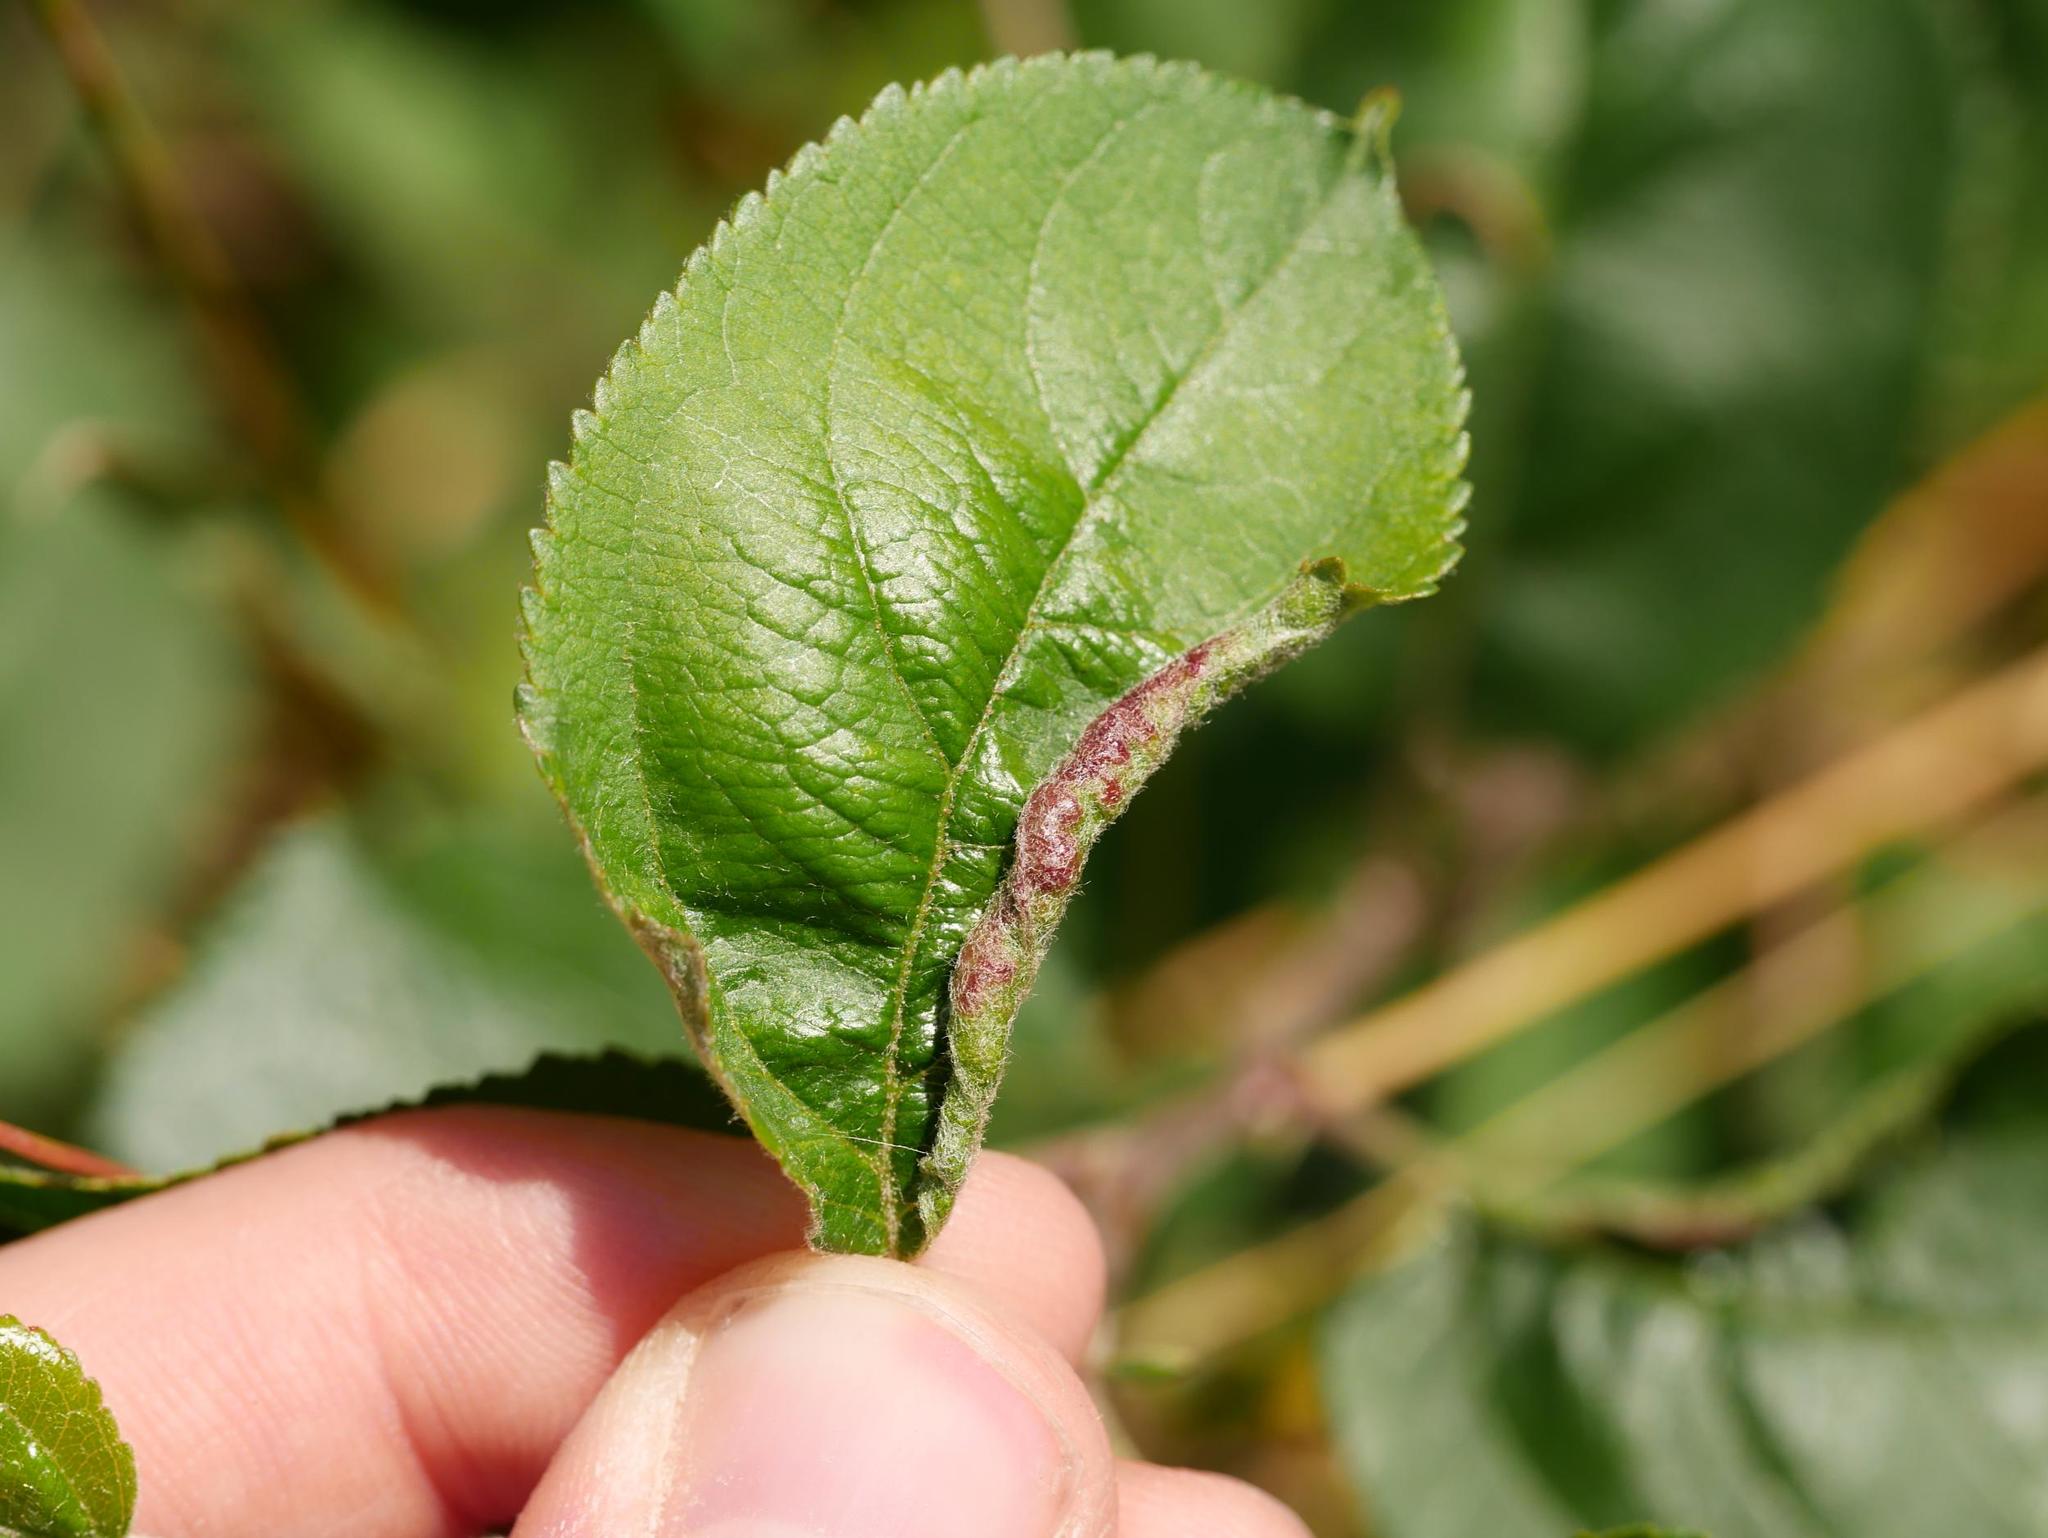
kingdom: Animalia
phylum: Arthropoda
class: Insecta
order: Diptera
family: Cecidomyiidae
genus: Dasineura
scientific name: Dasineura mali
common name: Apple leaf midge
